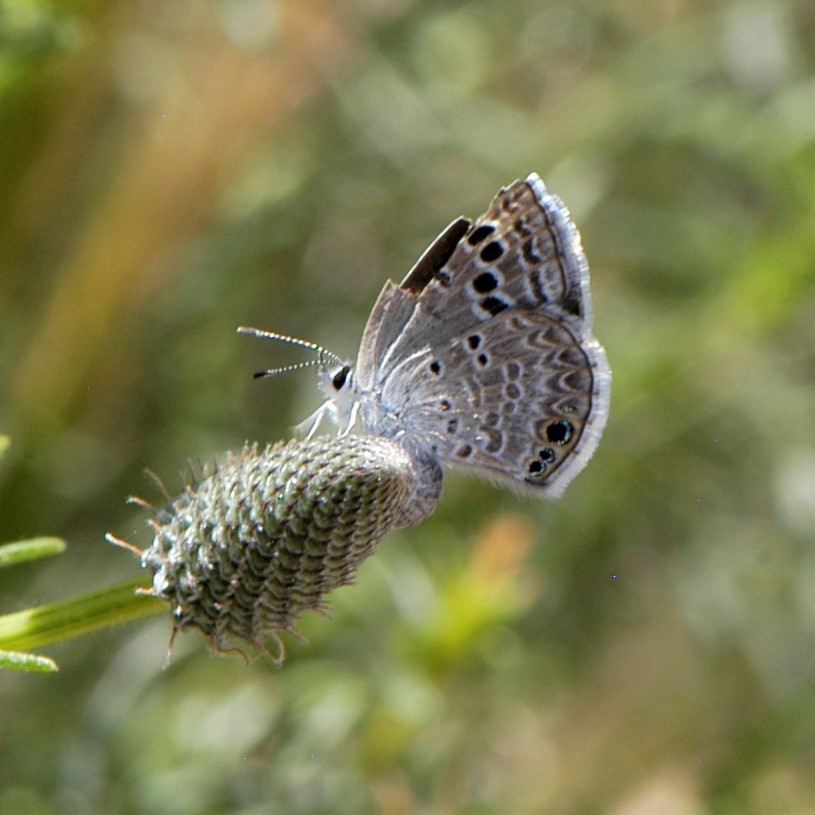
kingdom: Animalia
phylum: Arthropoda
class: Insecta
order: Lepidoptera
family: Lycaenidae
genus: Echinargus
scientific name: Echinargus isola
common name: Reakirt's blue
